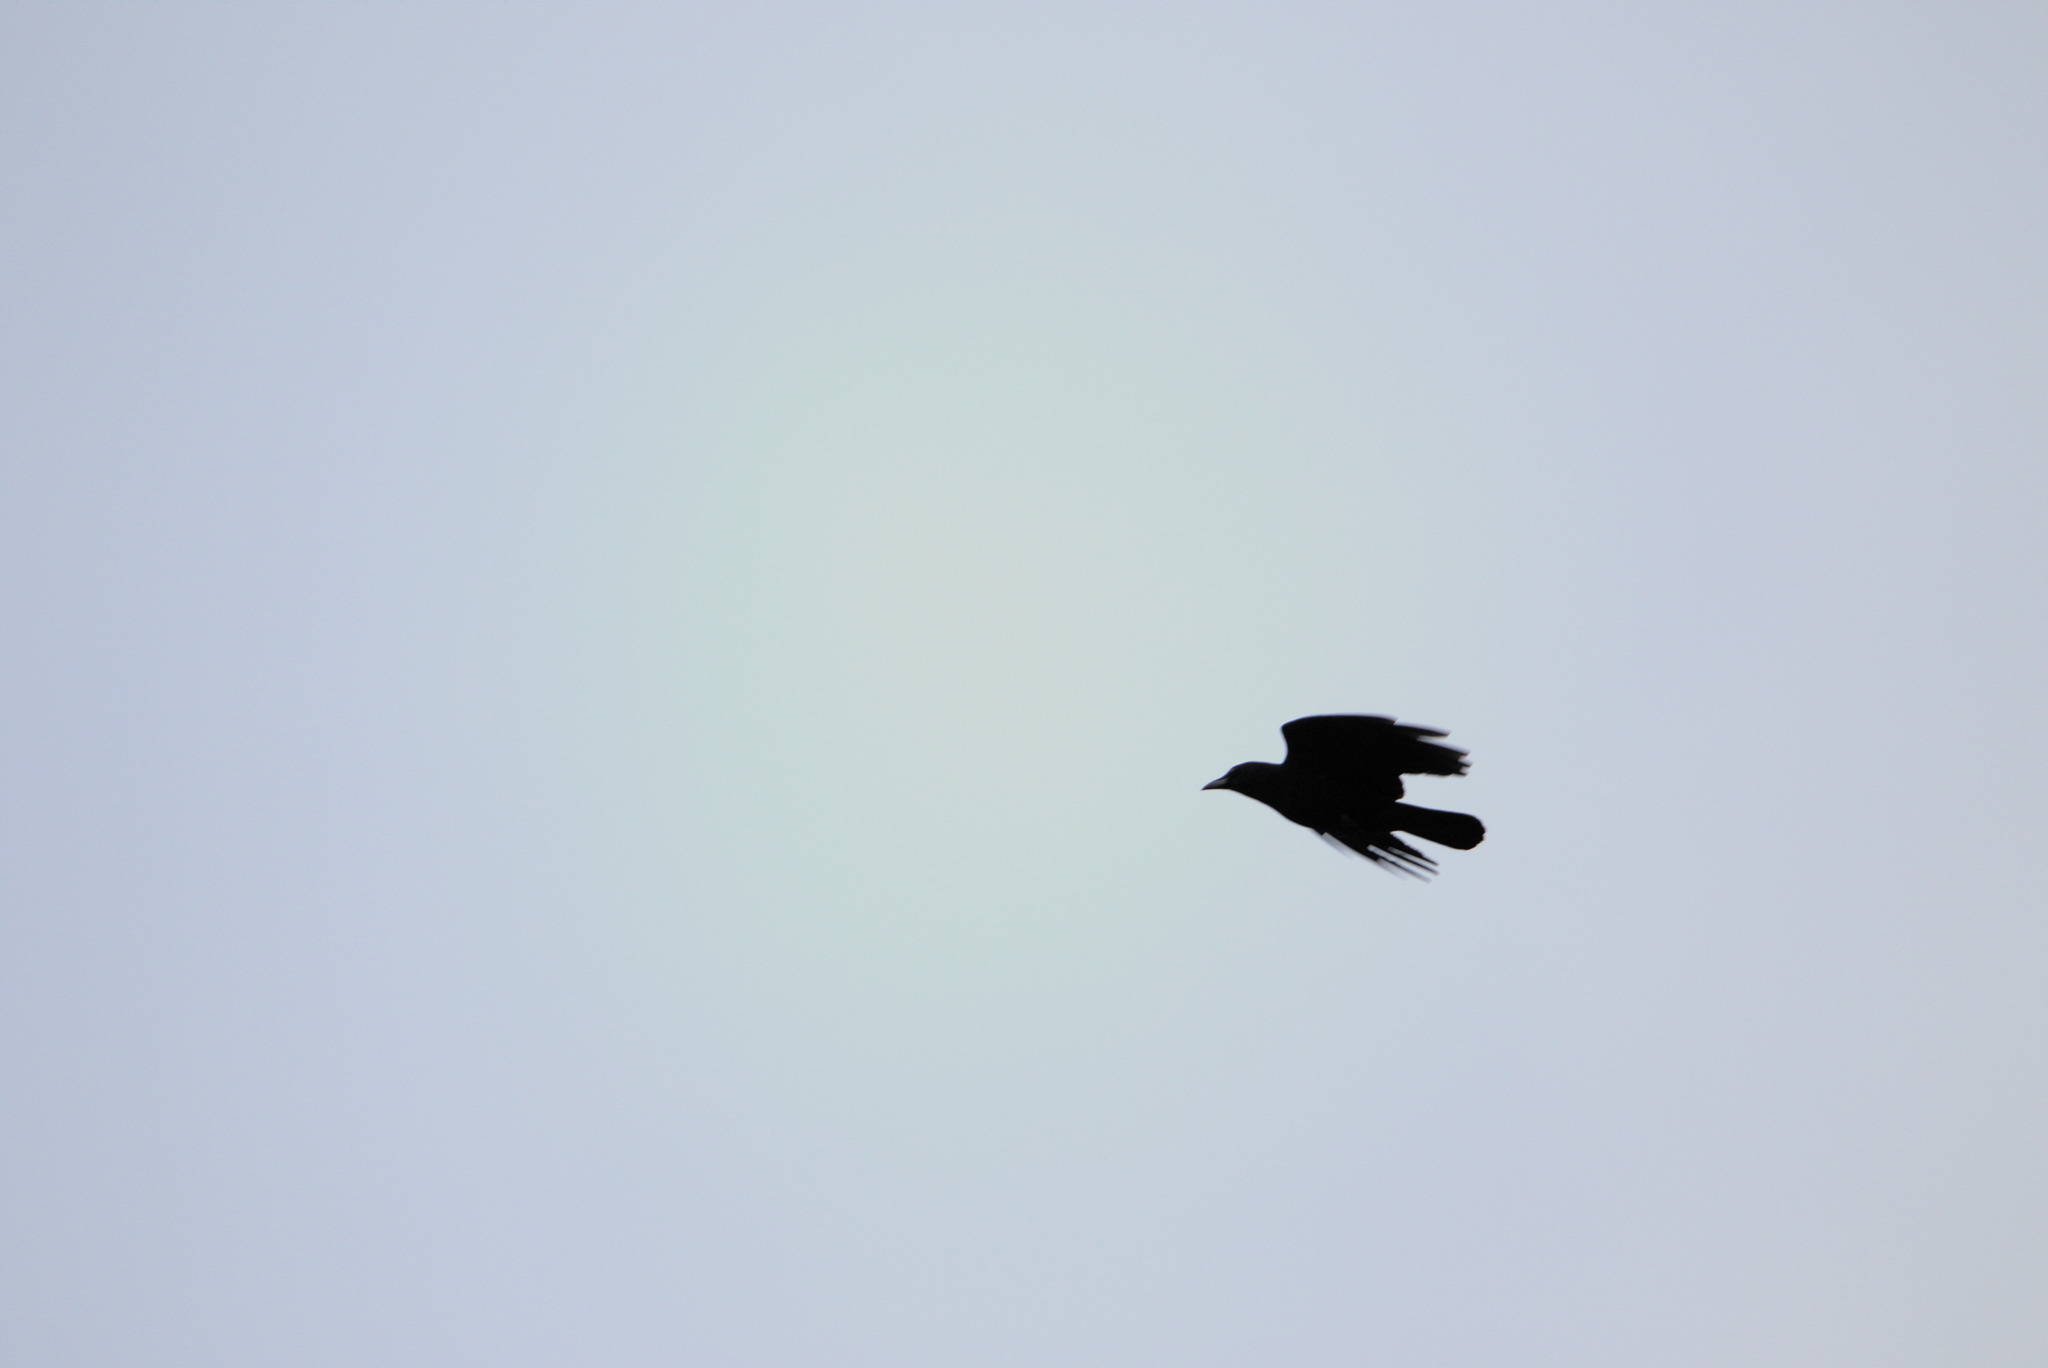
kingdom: Animalia
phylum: Chordata
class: Aves
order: Passeriformes
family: Corvidae
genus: Corvus
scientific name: Corvus brachyrhynchos
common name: American crow
